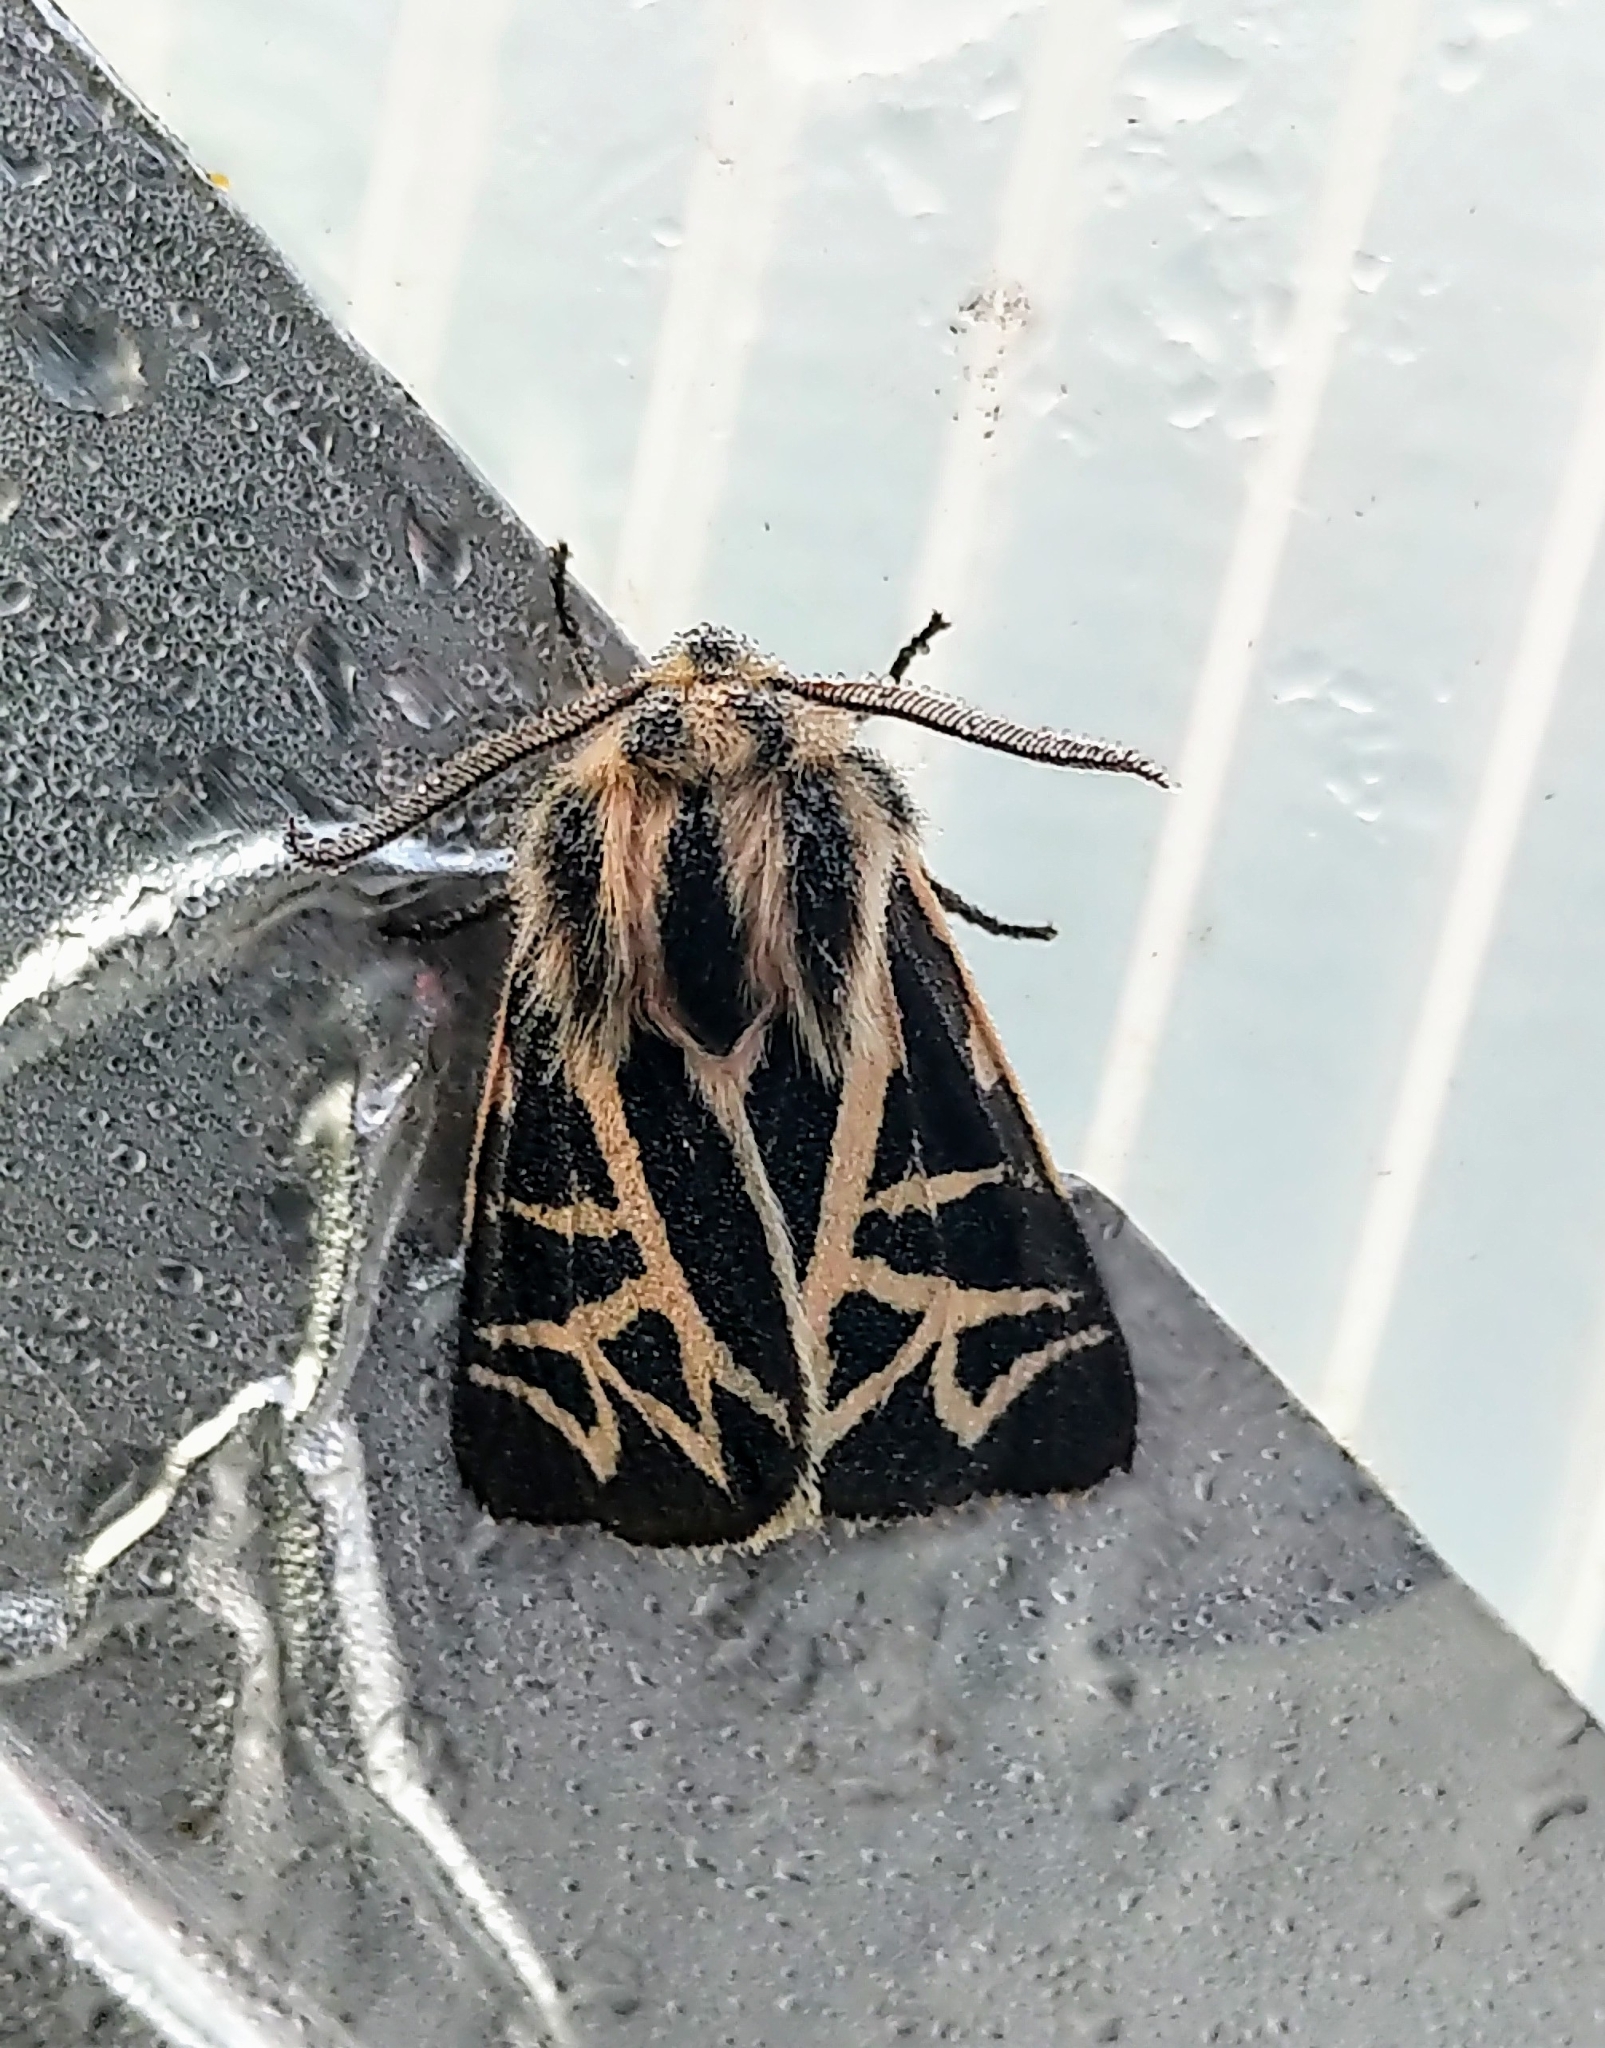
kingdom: Animalia
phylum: Arthropoda
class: Insecta
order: Lepidoptera
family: Erebidae
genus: Apantesis
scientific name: Apantesis
